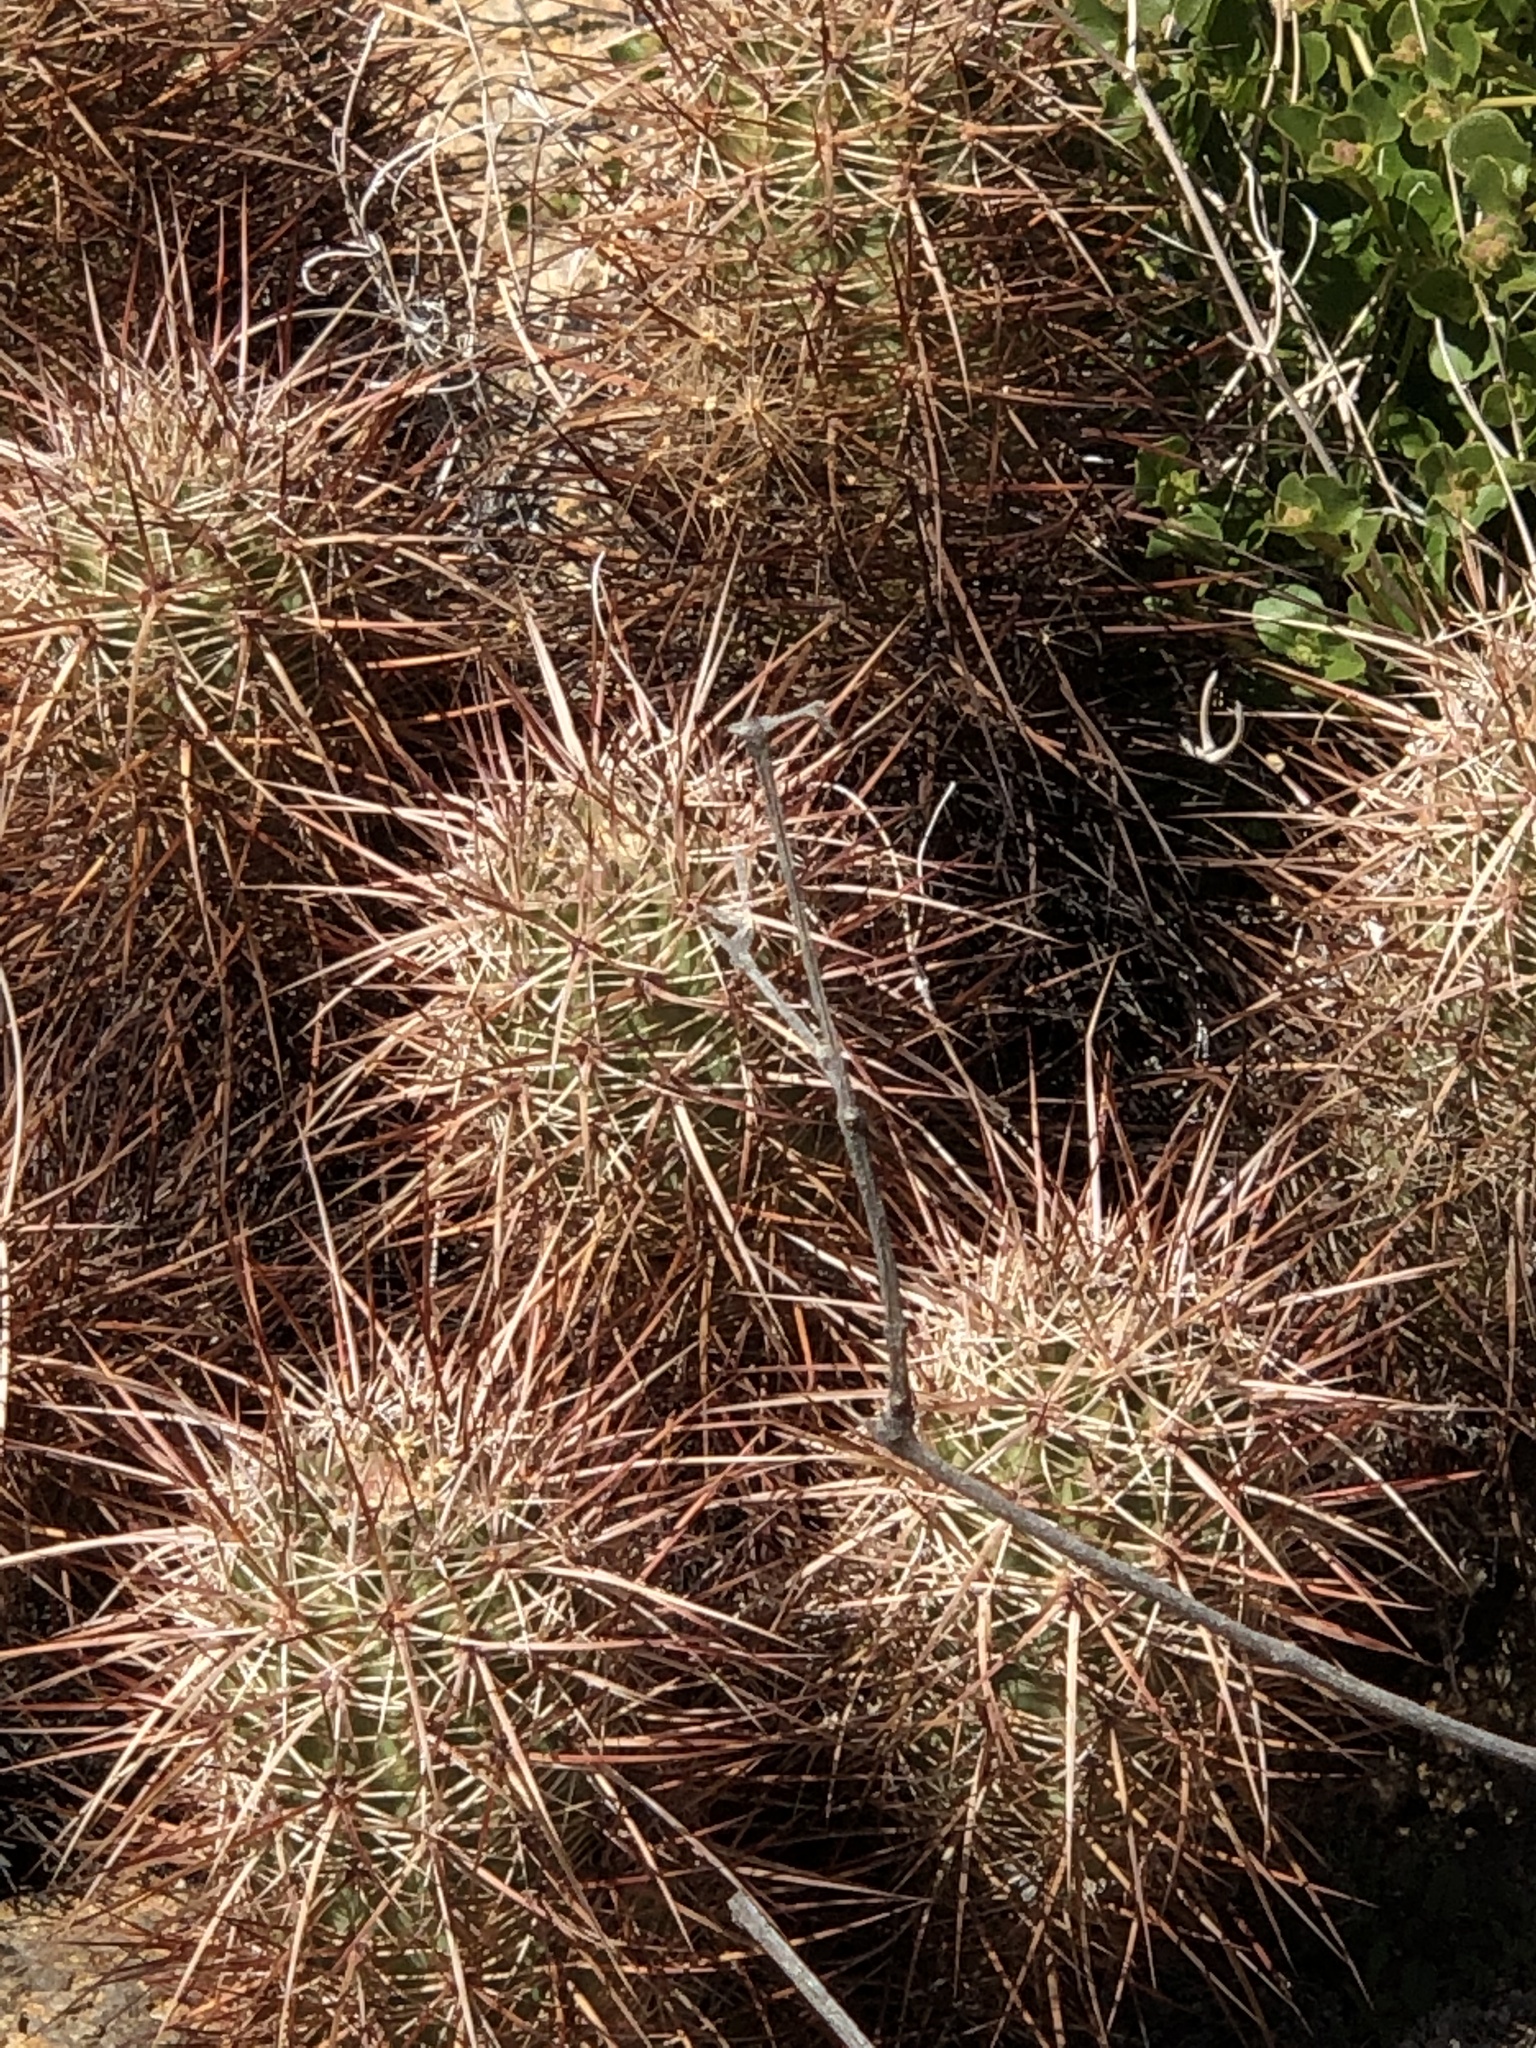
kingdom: Plantae
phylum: Tracheophyta
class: Magnoliopsida
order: Caryophyllales
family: Cactaceae
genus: Echinocereus
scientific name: Echinocereus engelmannii
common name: Engelmann's hedgehog cactus
